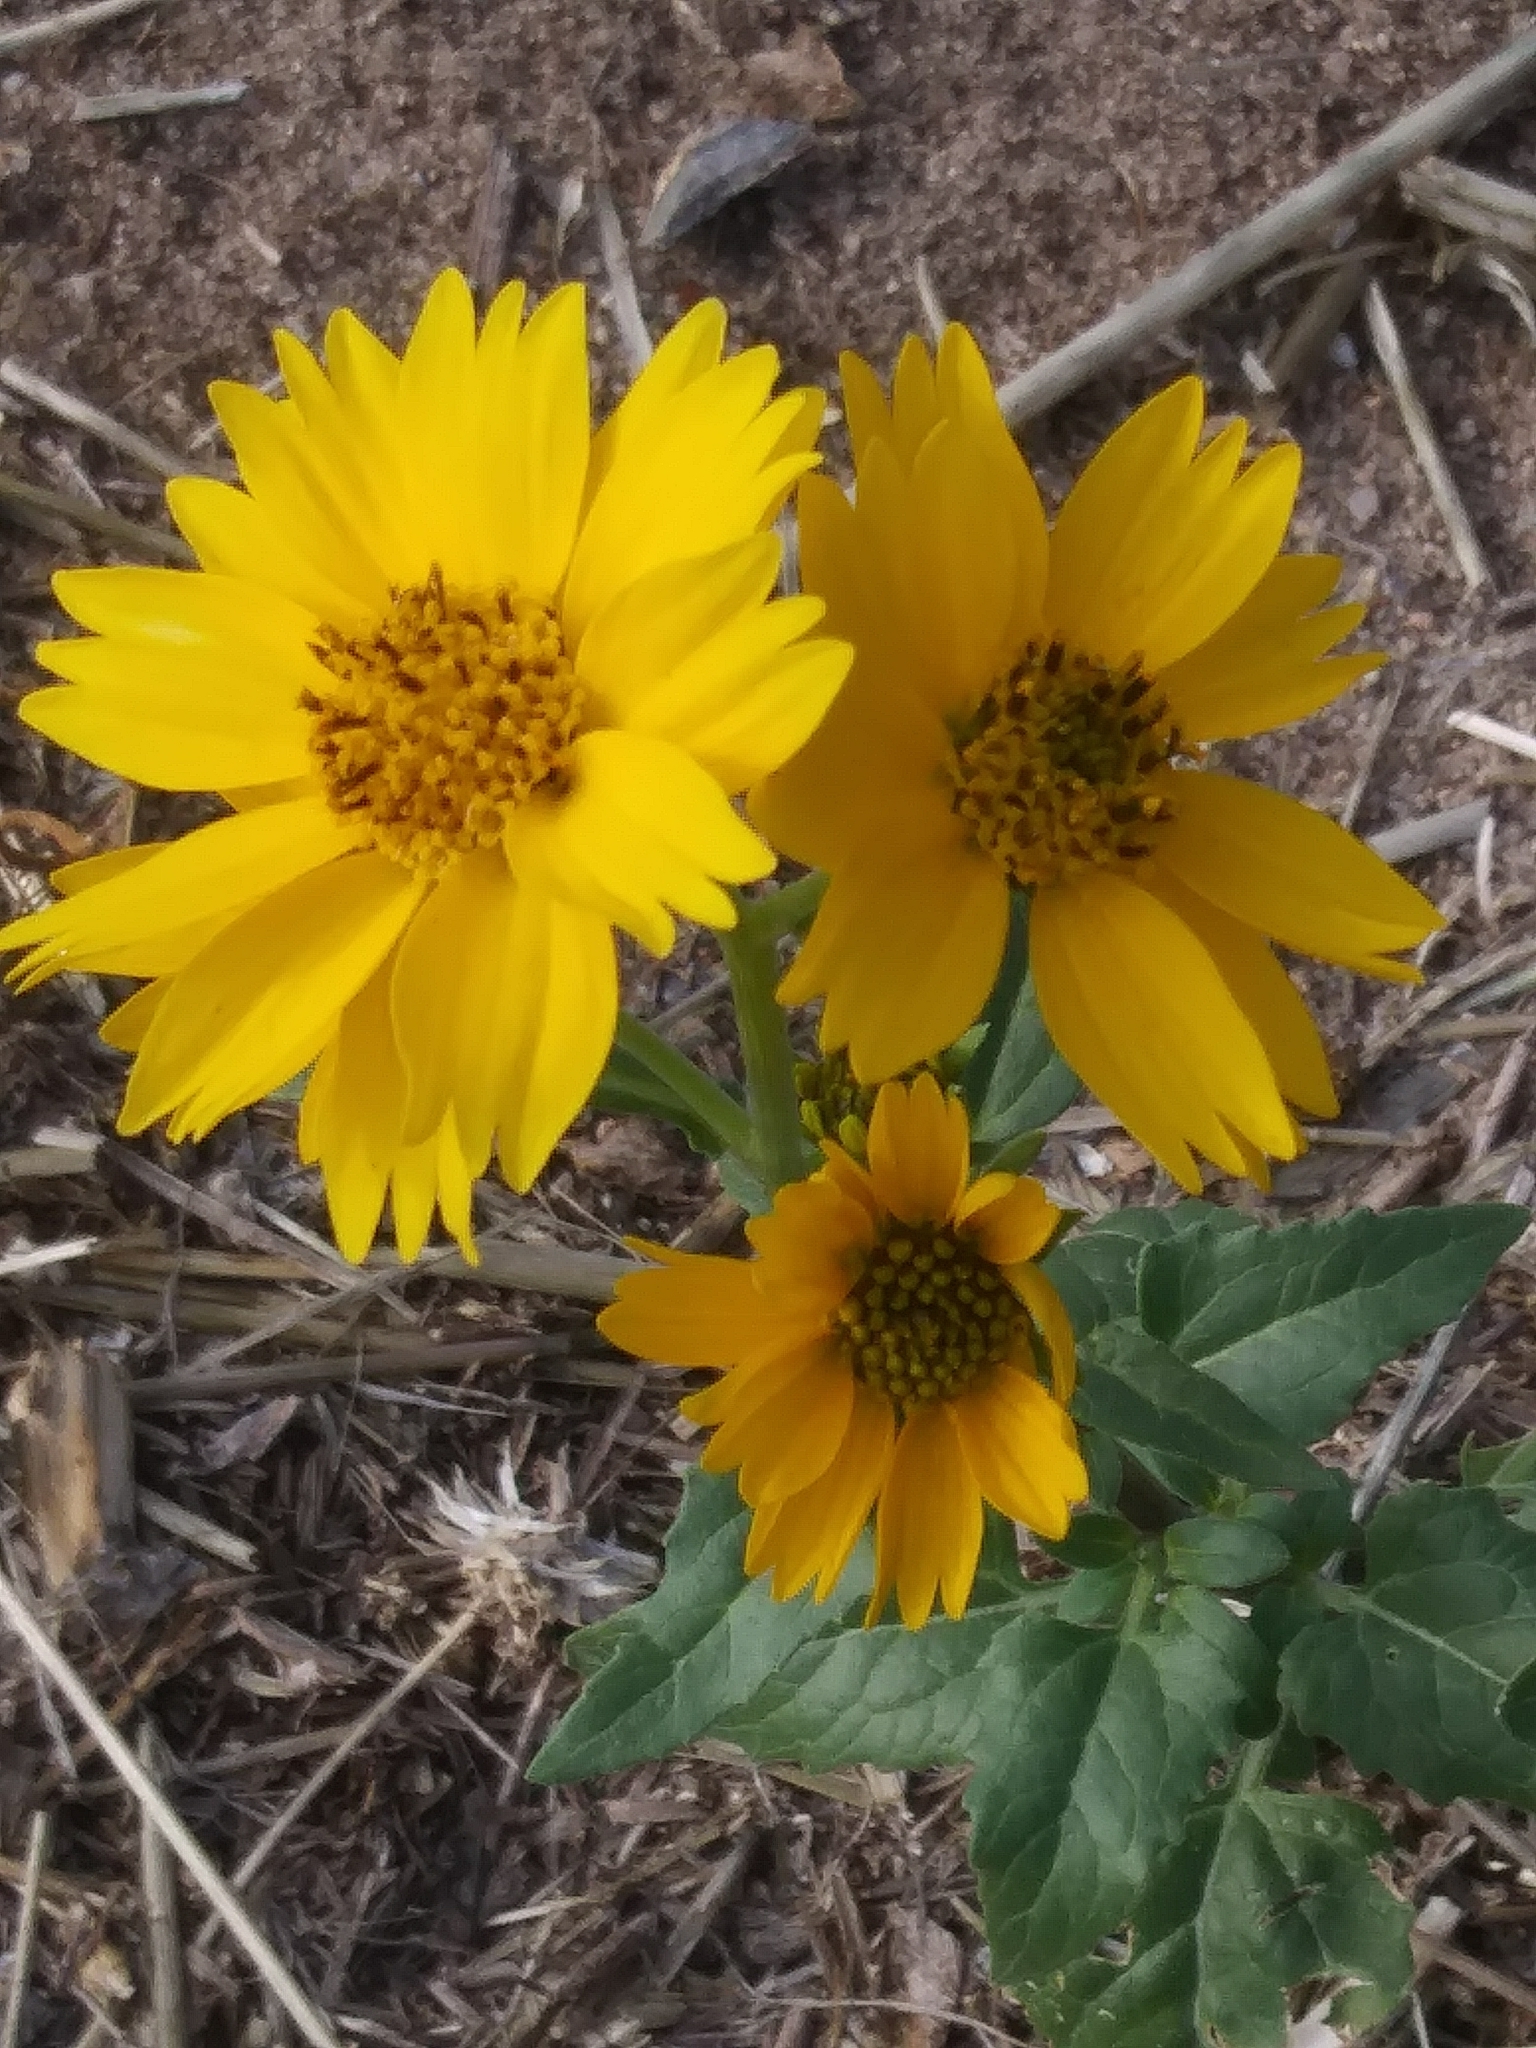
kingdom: Plantae
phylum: Tracheophyta
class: Magnoliopsida
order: Asterales
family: Asteraceae
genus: Verbesina
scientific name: Verbesina encelioides
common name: Golden crownbeard
